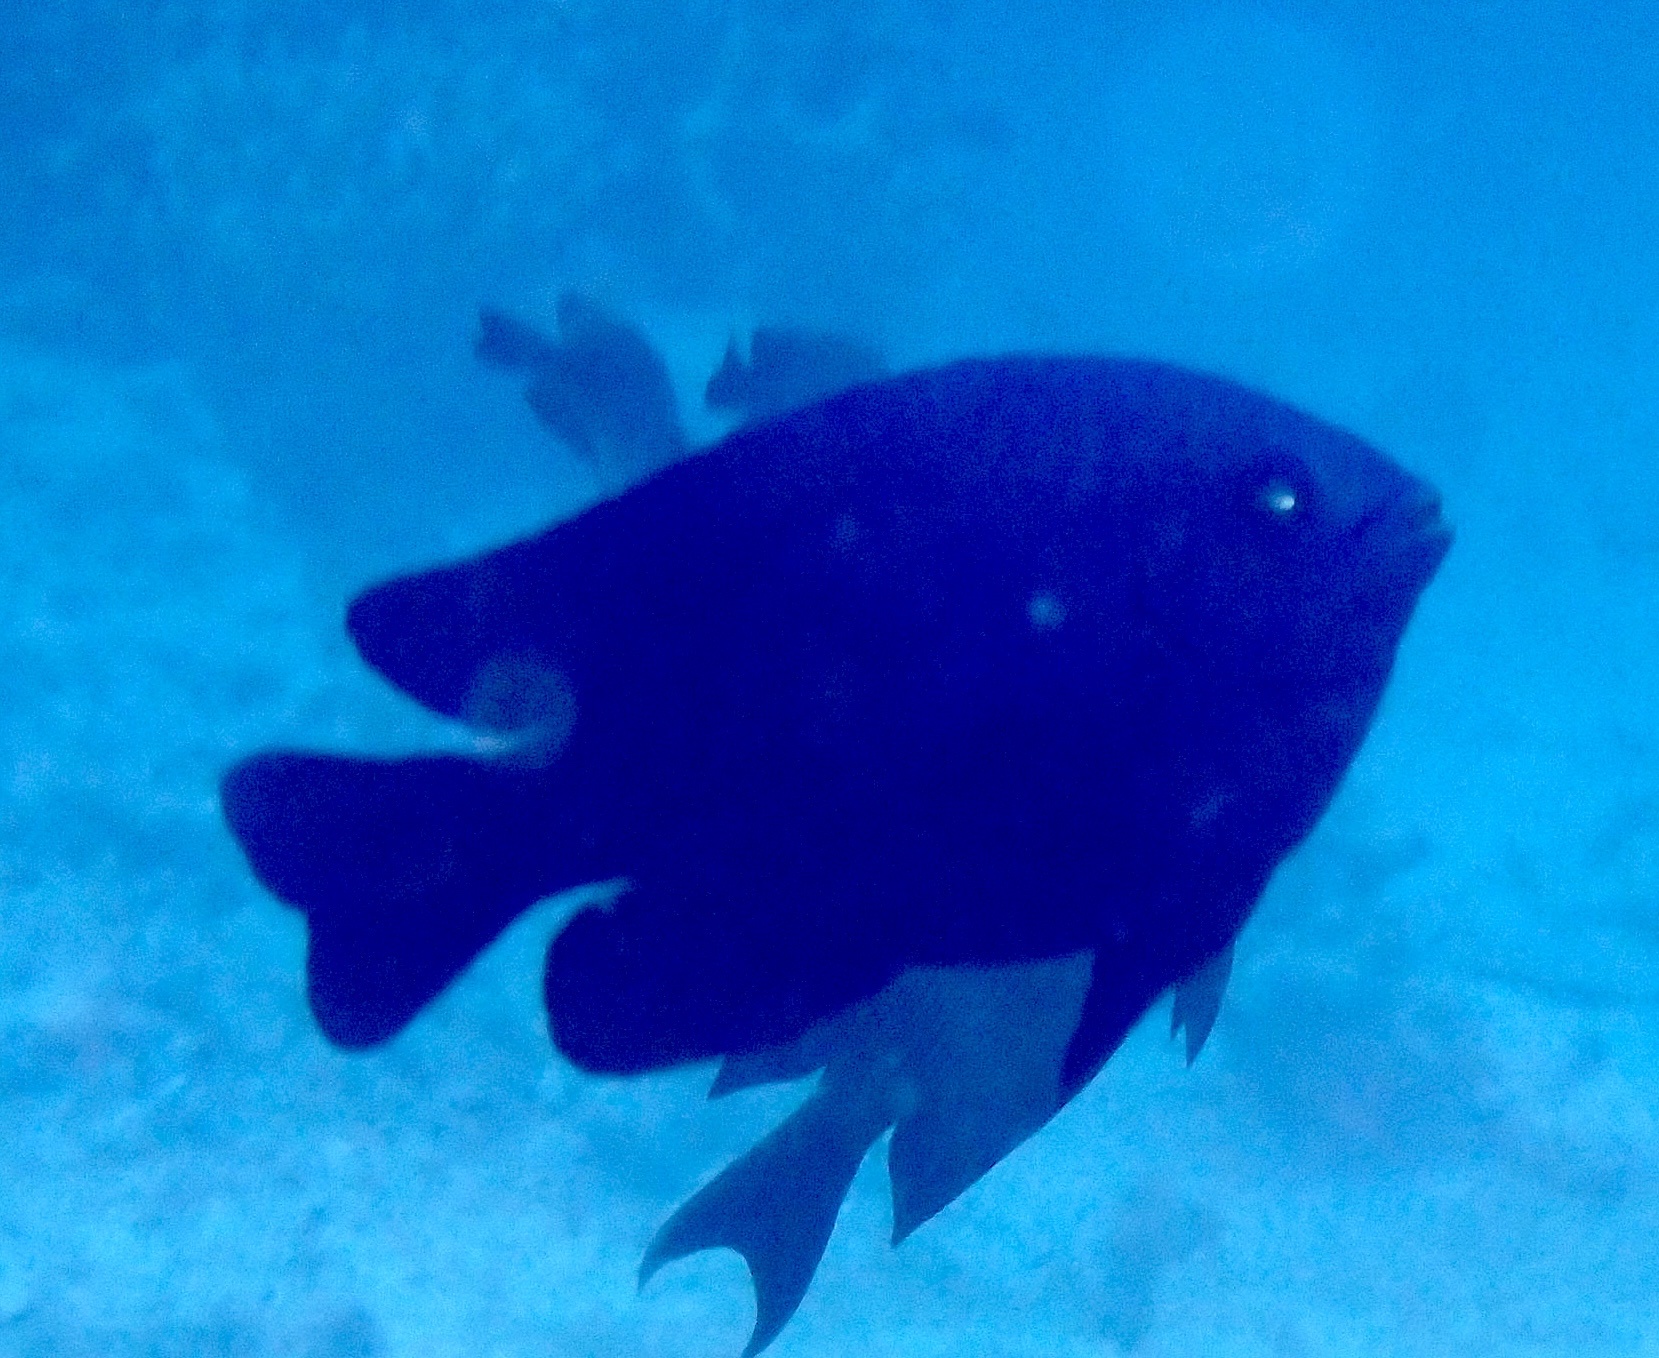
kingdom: Animalia
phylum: Chordata
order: Perciformes
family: Pomacentridae
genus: Neoglyphidodon
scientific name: Neoglyphidodon melas
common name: Black damsel
